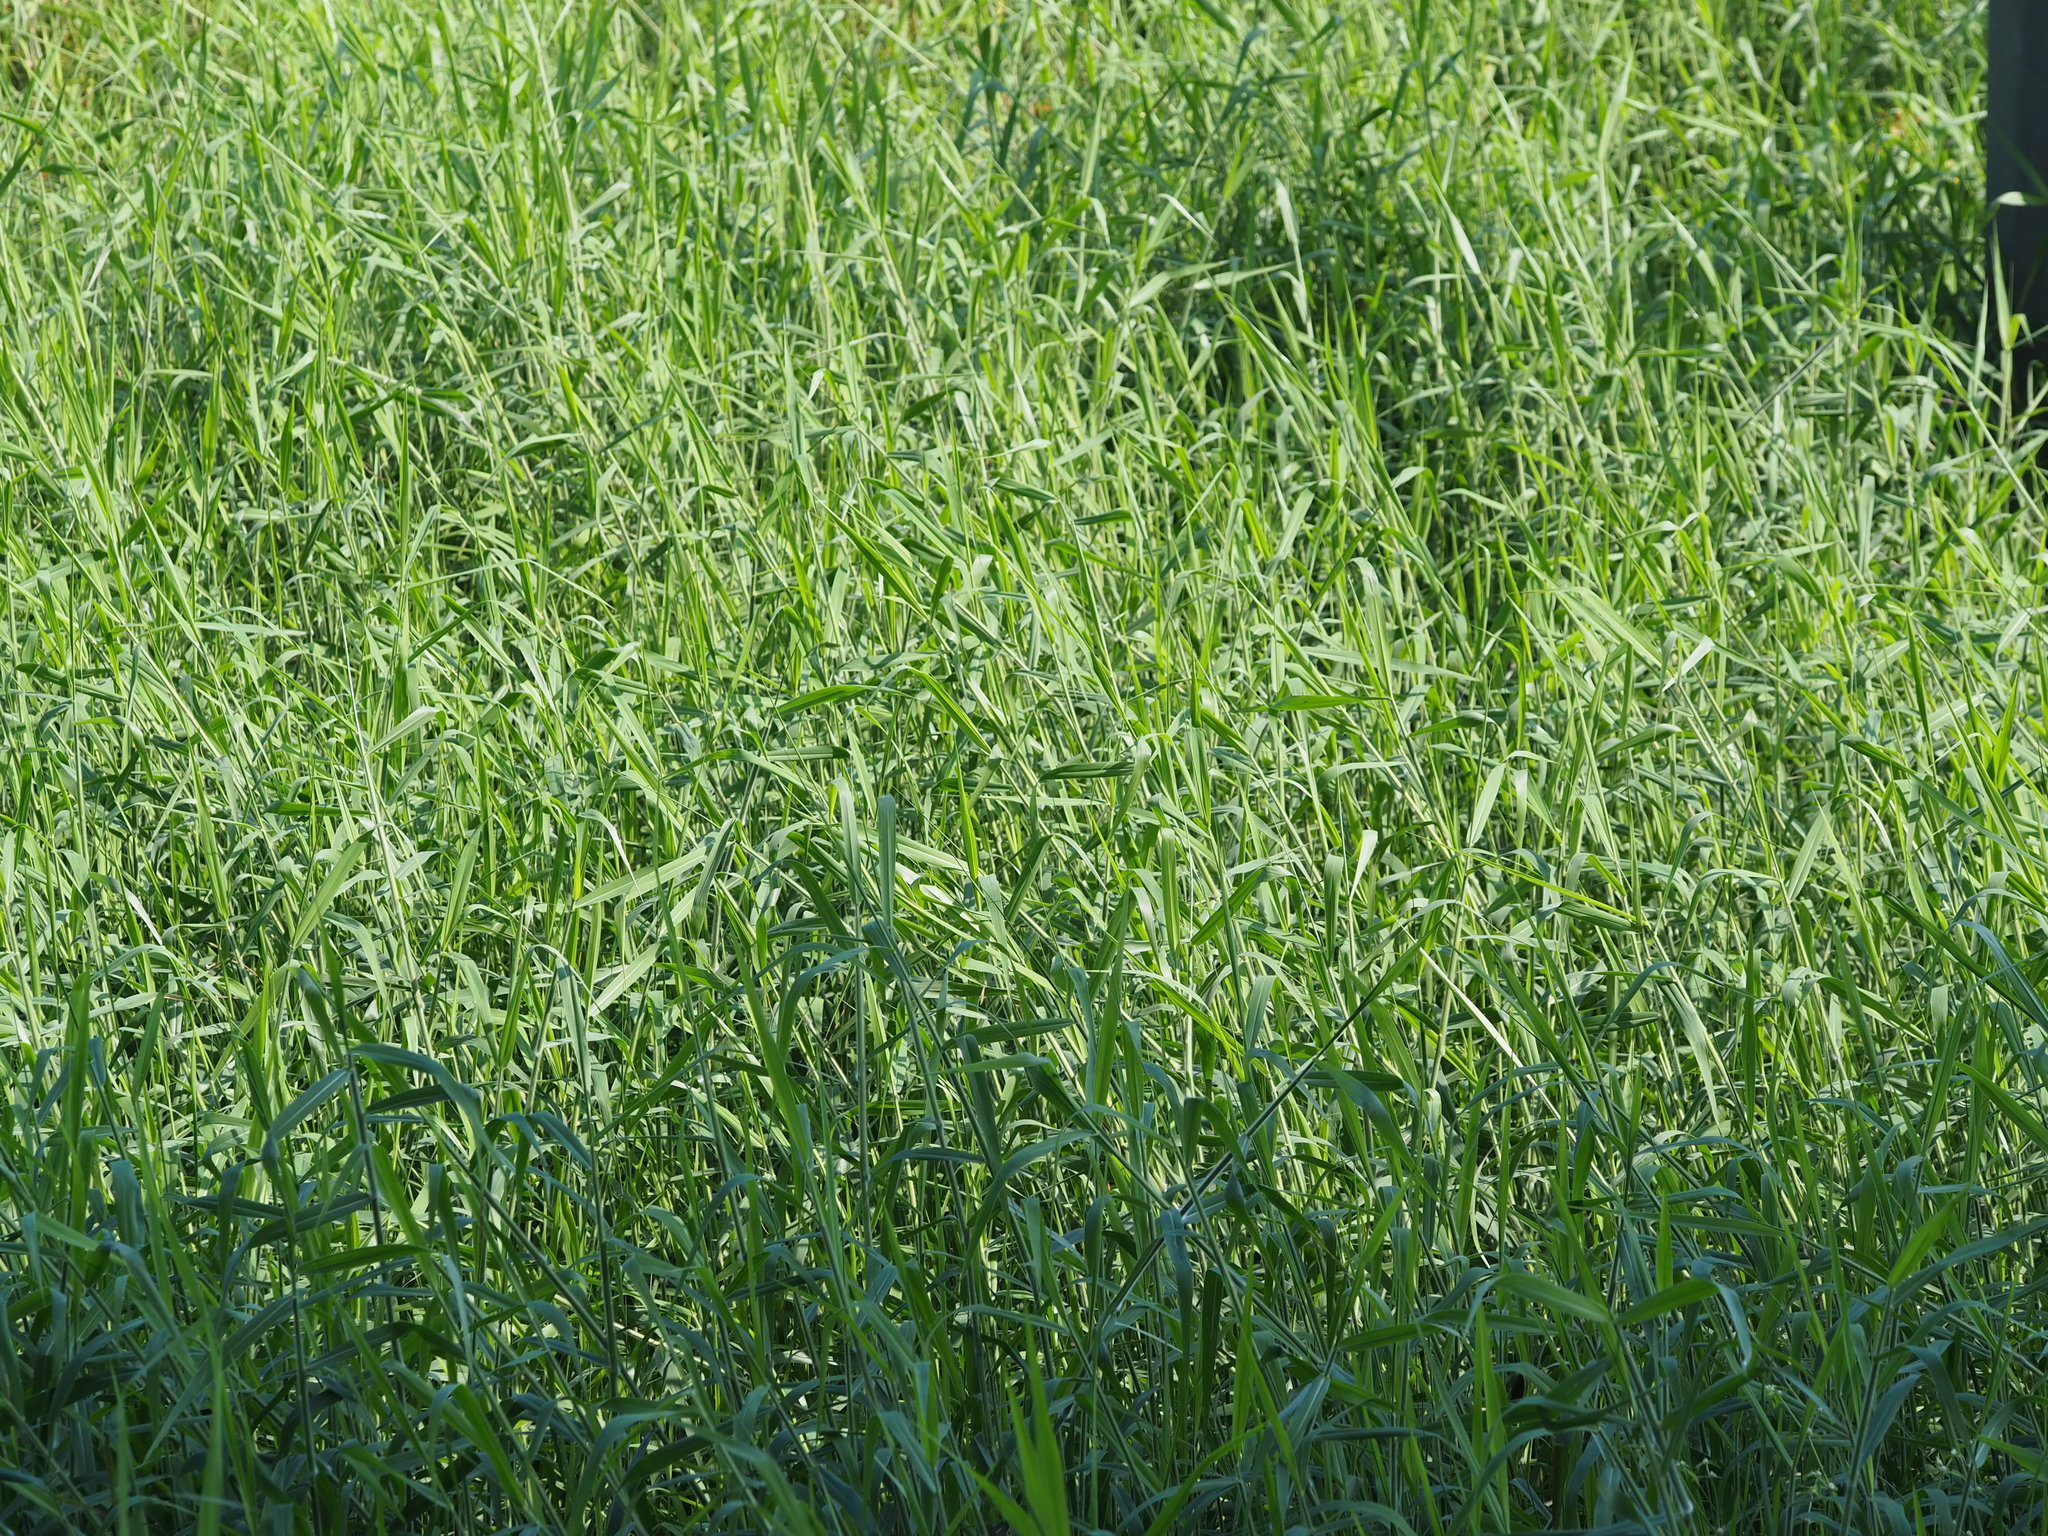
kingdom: Plantae
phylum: Tracheophyta
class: Liliopsida
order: Poales
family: Poaceae
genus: Urochloa
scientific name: Urochloa mutica
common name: Para grass
